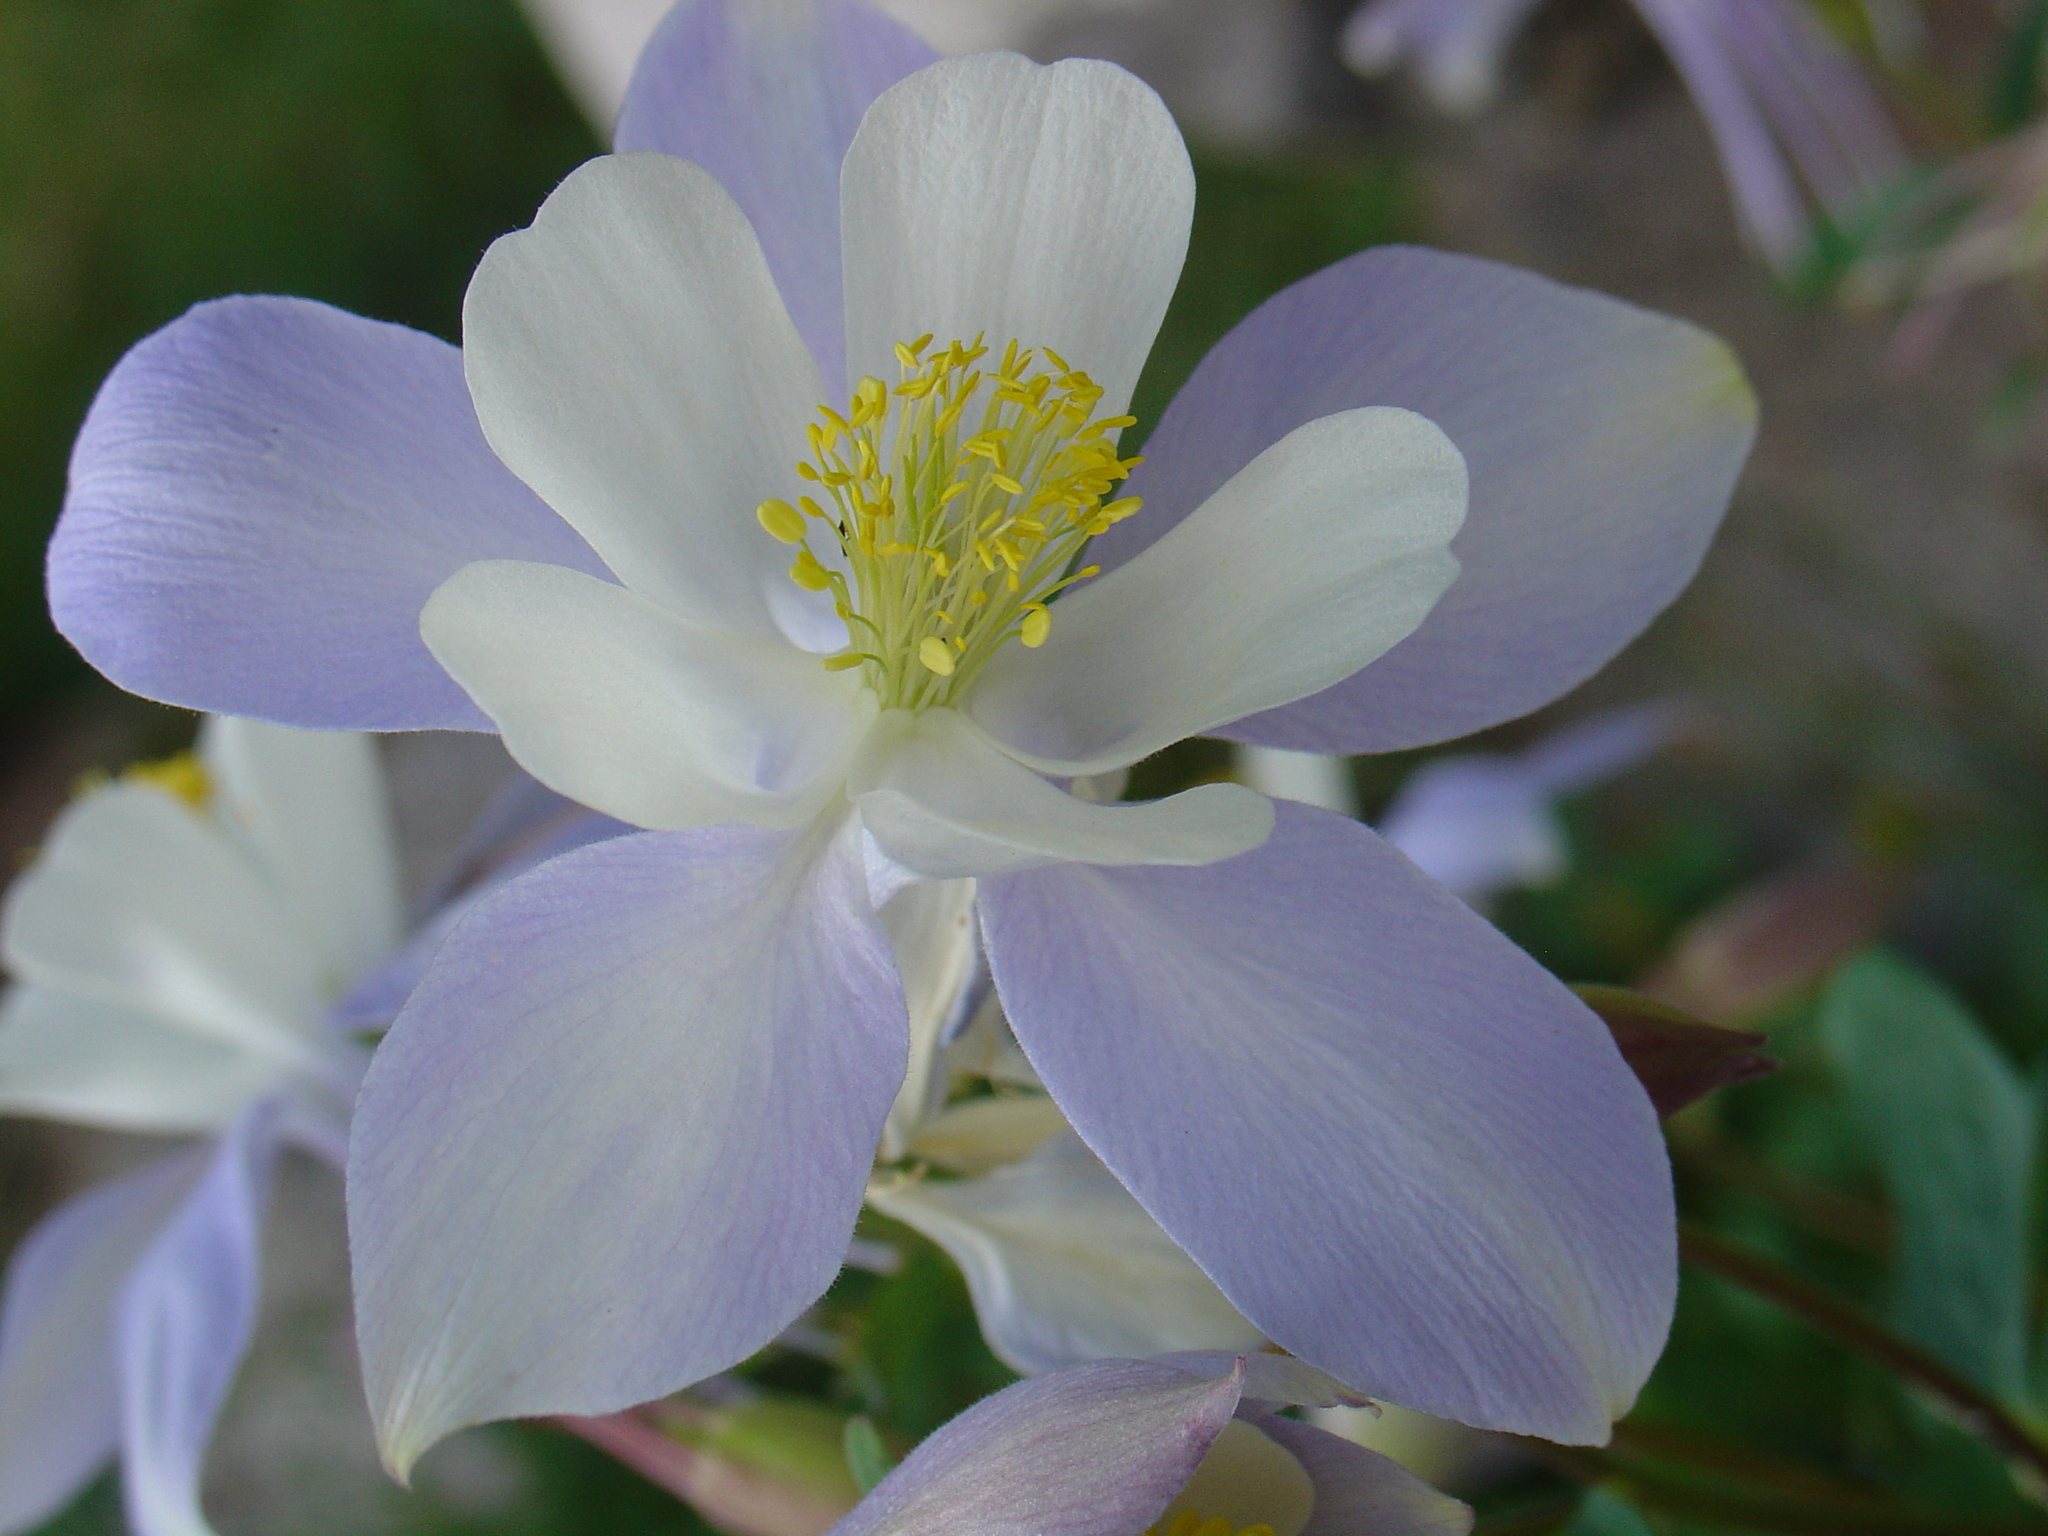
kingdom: Plantae
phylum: Tracheophyta
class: Magnoliopsida
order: Ranunculales
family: Ranunculaceae
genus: Aquilegia
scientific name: Aquilegia coerulea
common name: Rocky mountain columbine
